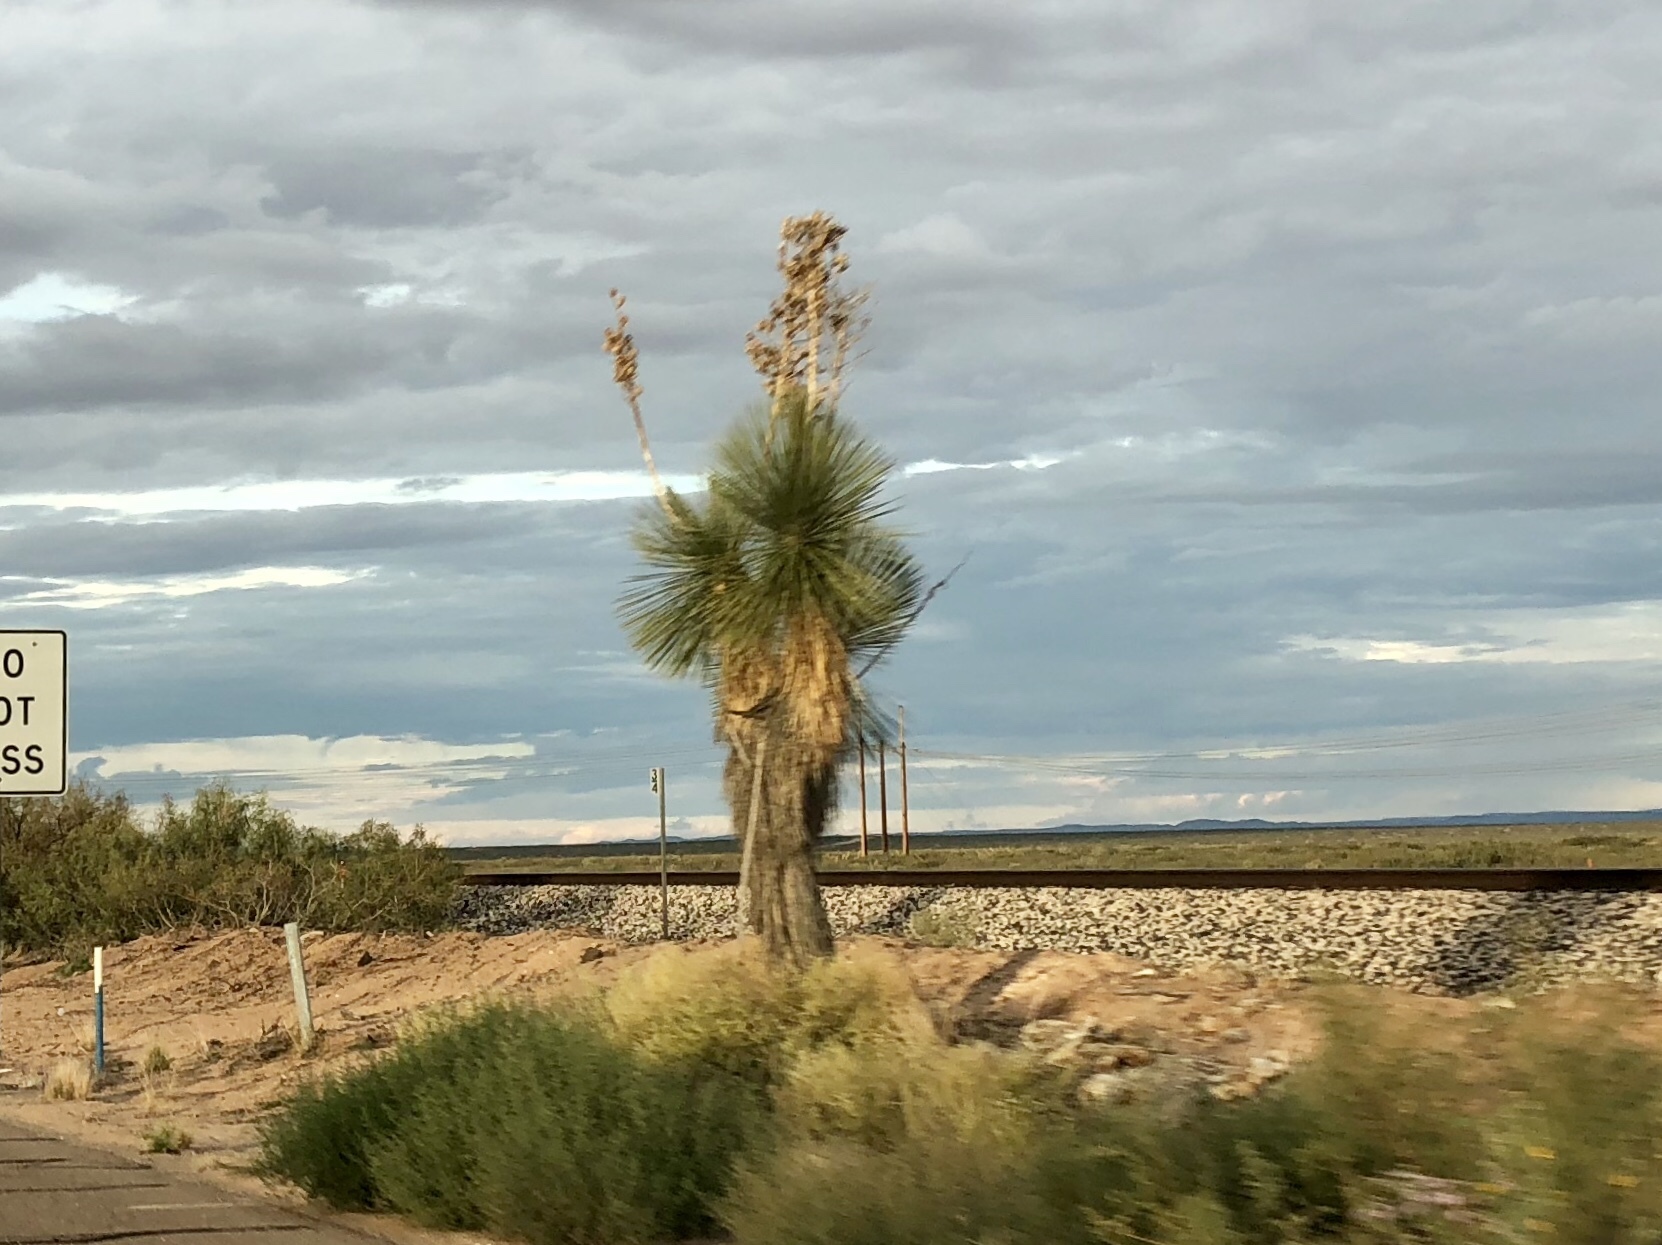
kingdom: Plantae
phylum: Tracheophyta
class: Liliopsida
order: Asparagales
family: Asparagaceae
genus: Yucca
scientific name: Yucca elata
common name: Palmella
